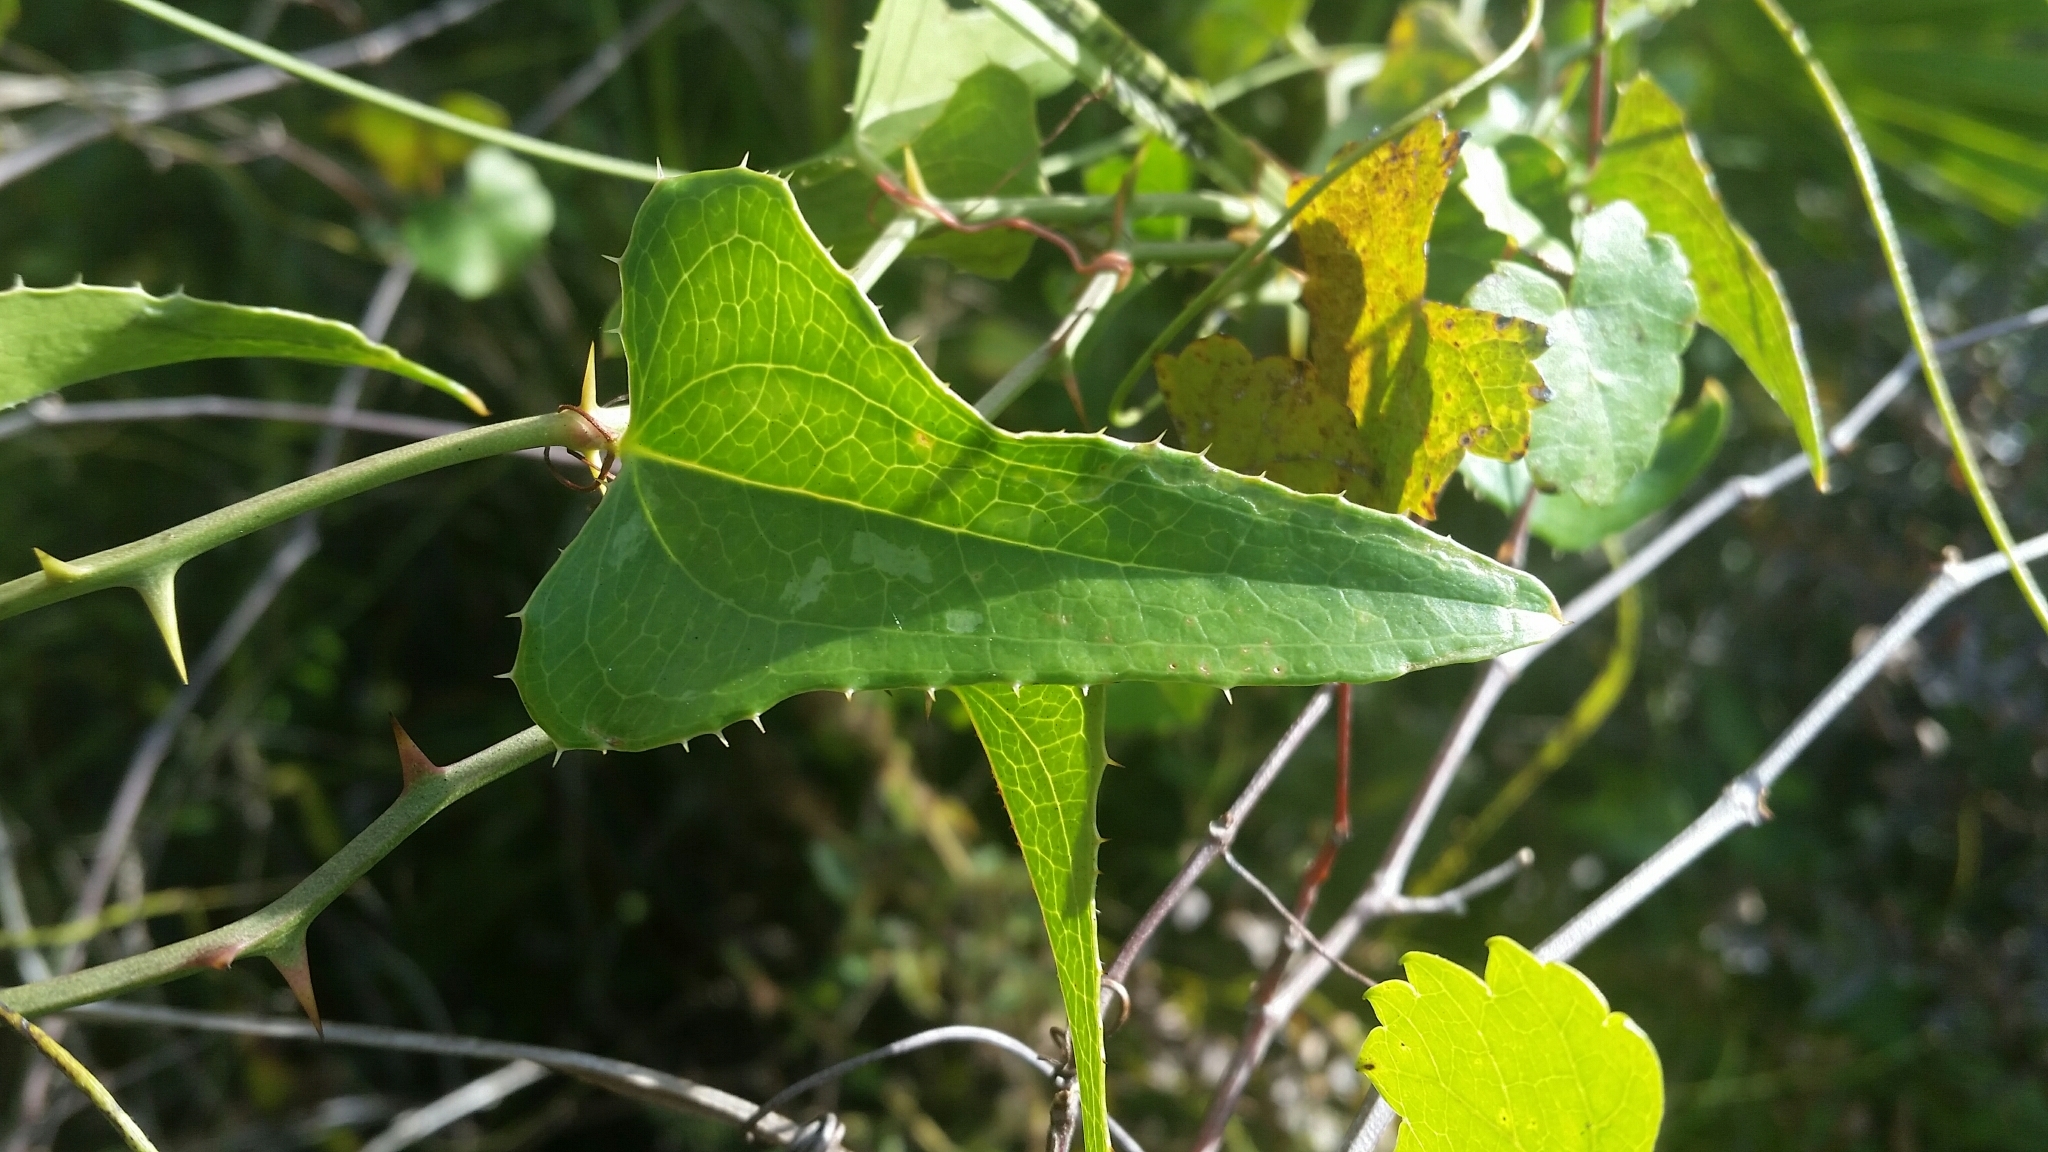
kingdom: Plantae
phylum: Tracheophyta
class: Liliopsida
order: Liliales
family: Smilacaceae
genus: Smilax
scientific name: Smilax bona-nox
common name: Catbrier
